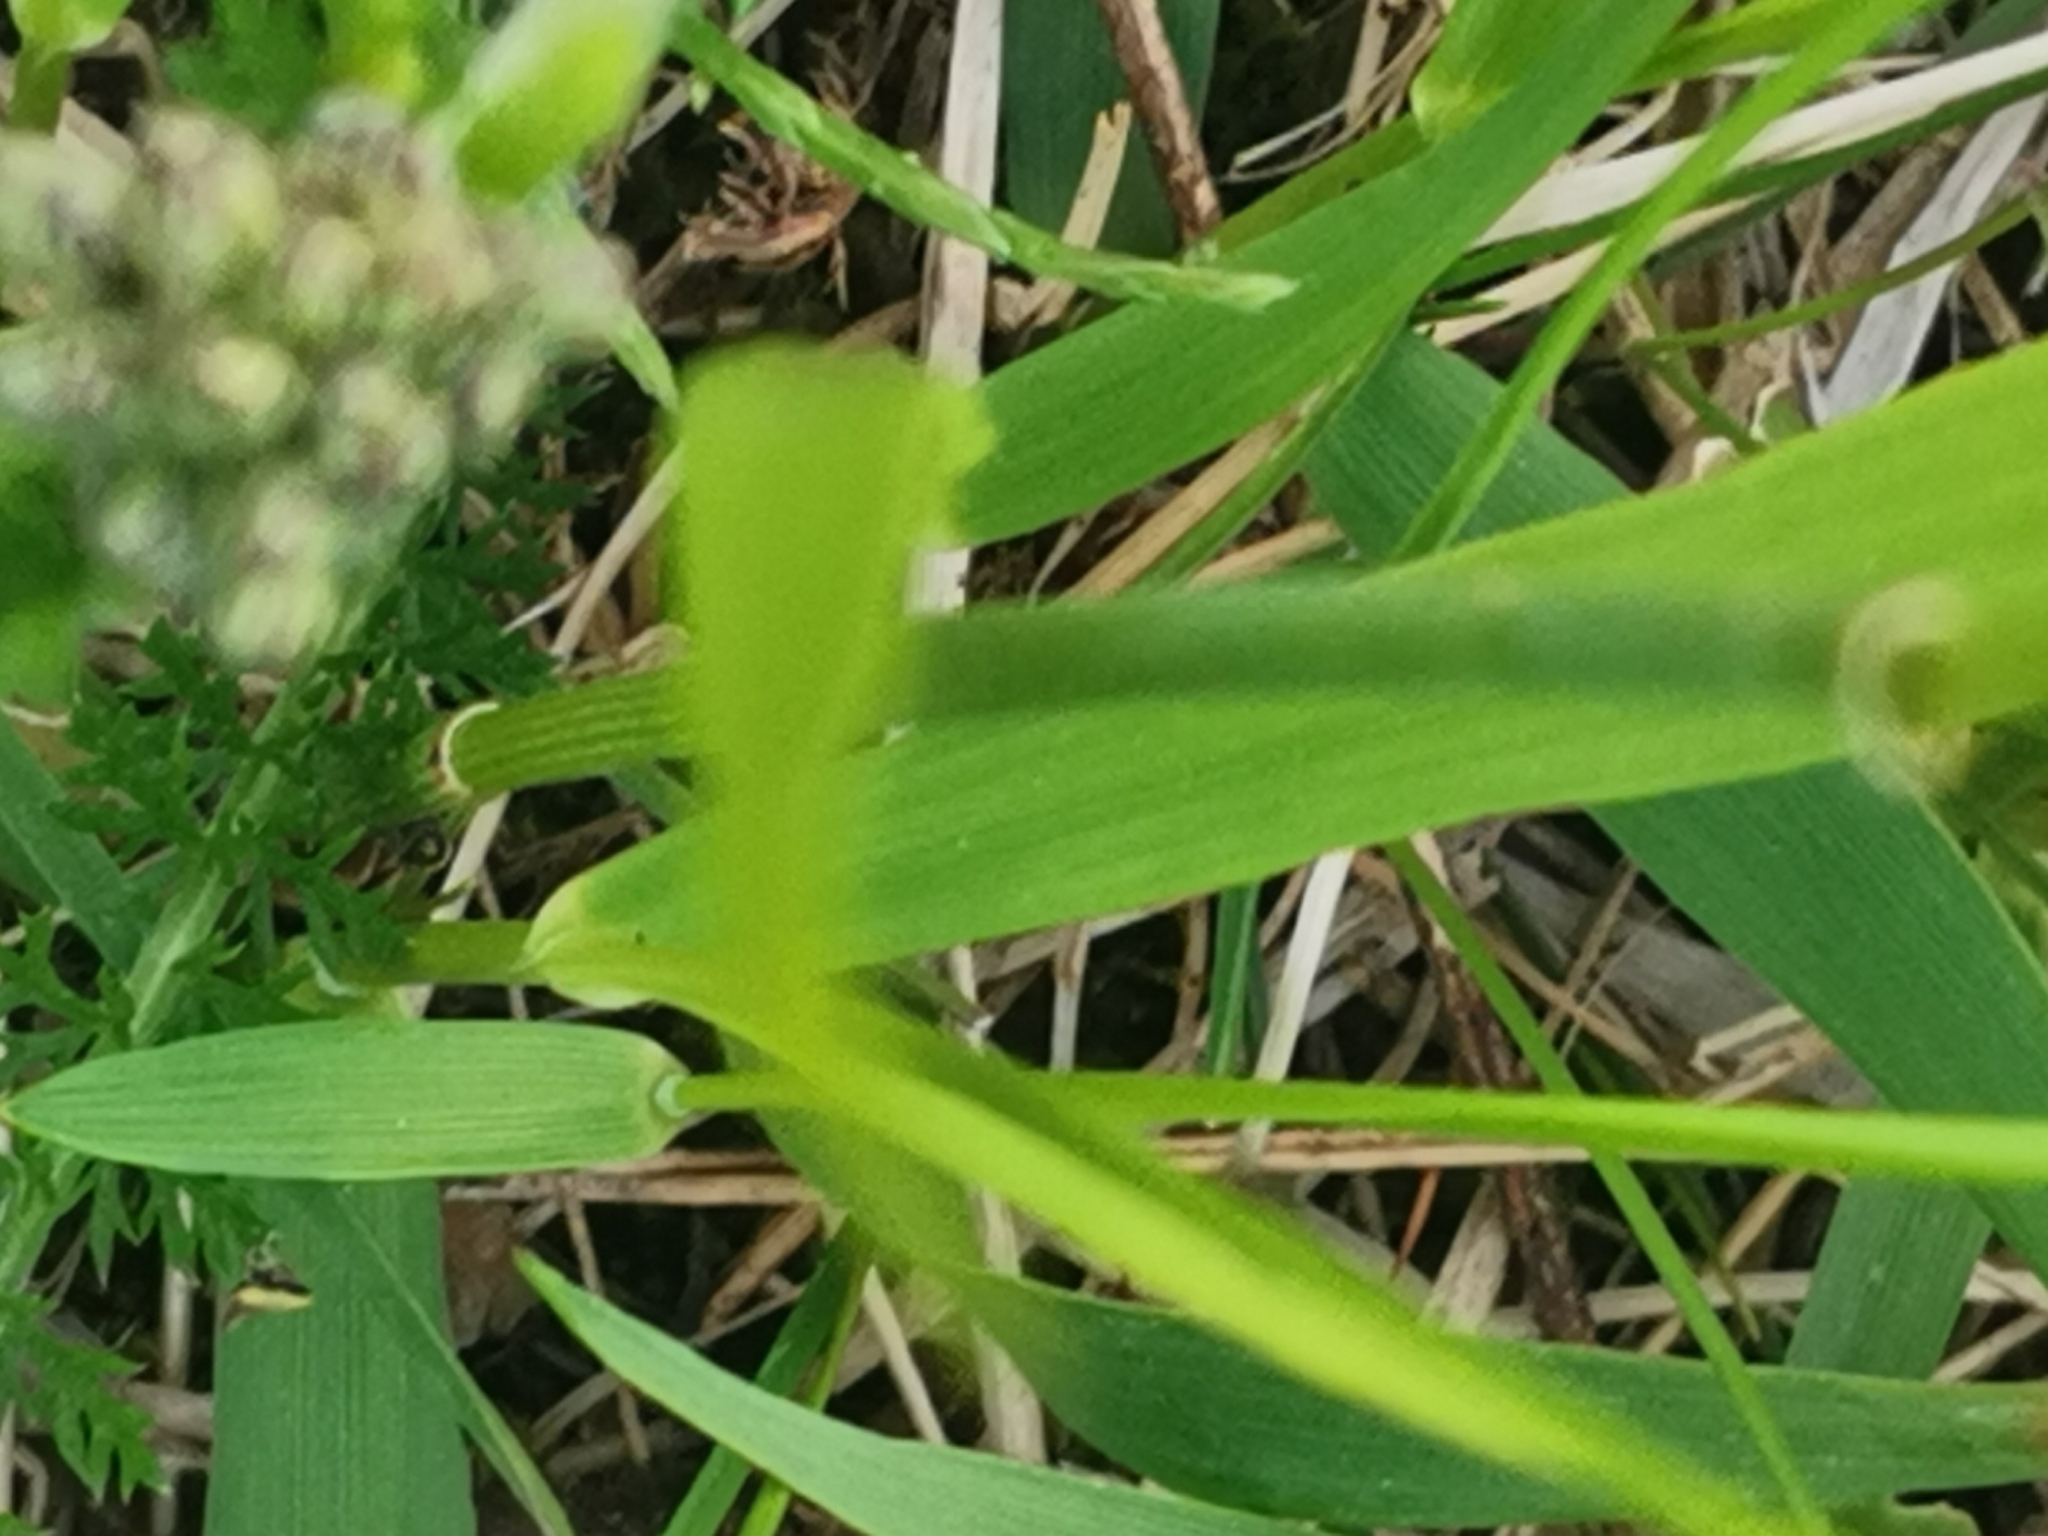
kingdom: Plantae
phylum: Tracheophyta
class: Liliopsida
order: Poales
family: Poaceae
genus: Anthoxanthum
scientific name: Anthoxanthum nitens
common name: Holy grass
